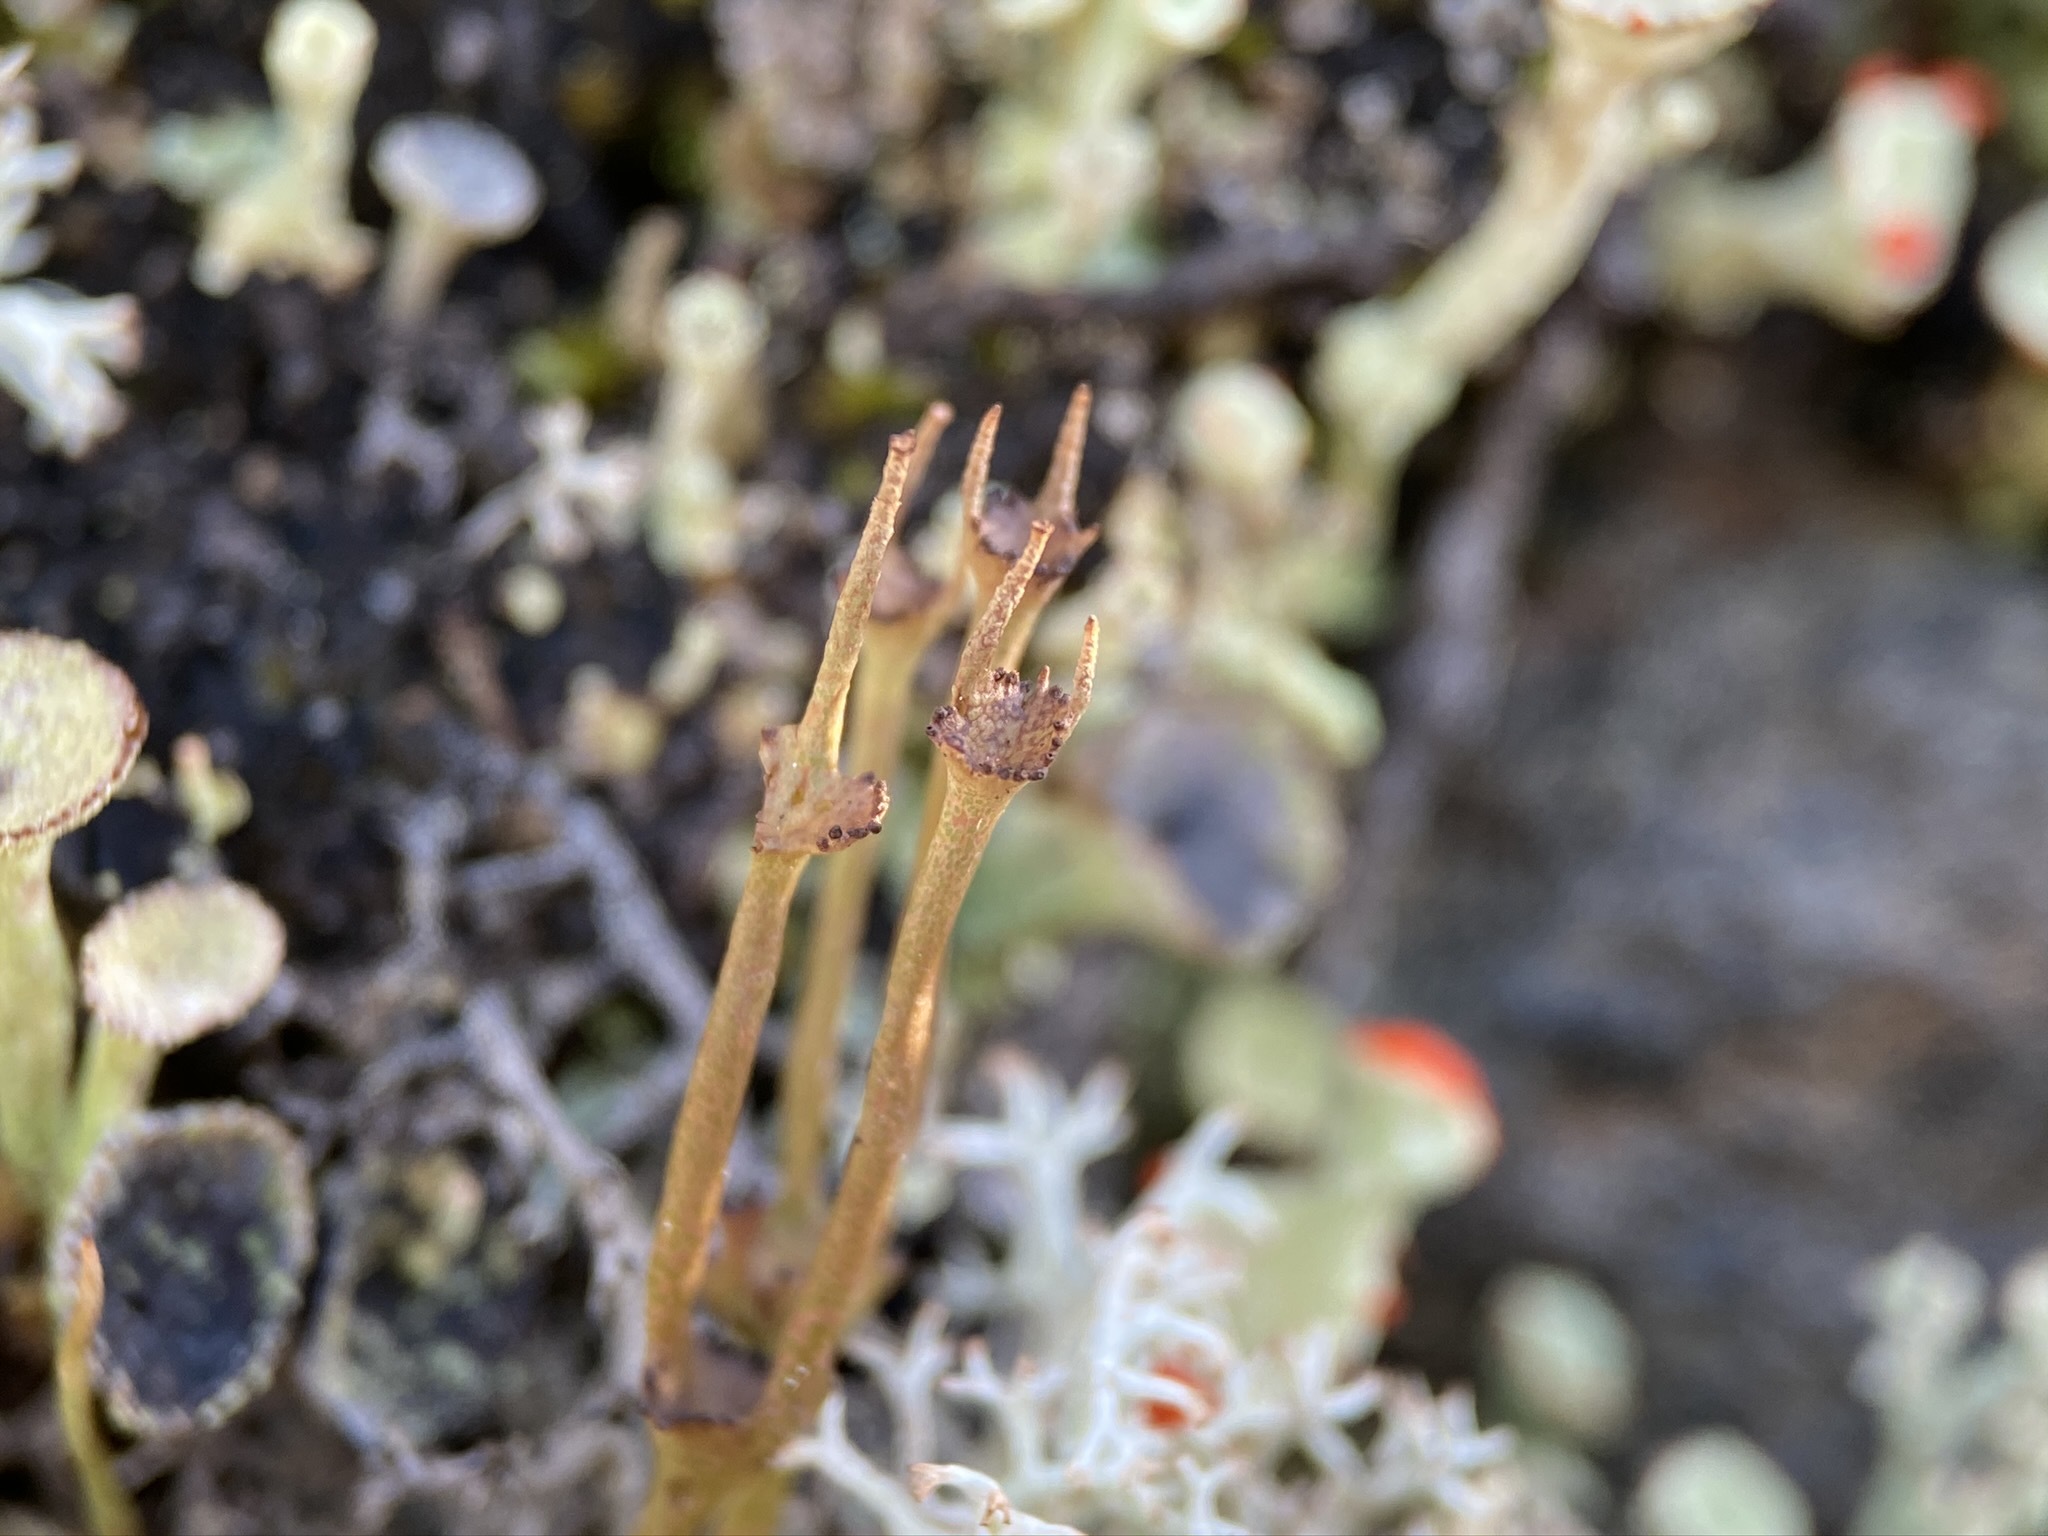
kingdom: Fungi
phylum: Ascomycota
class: Lecanoromycetes
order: Lecanorales
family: Cladoniaceae
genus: Cladonia
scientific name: Cladonia gracilis
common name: Smooth clad lichen
